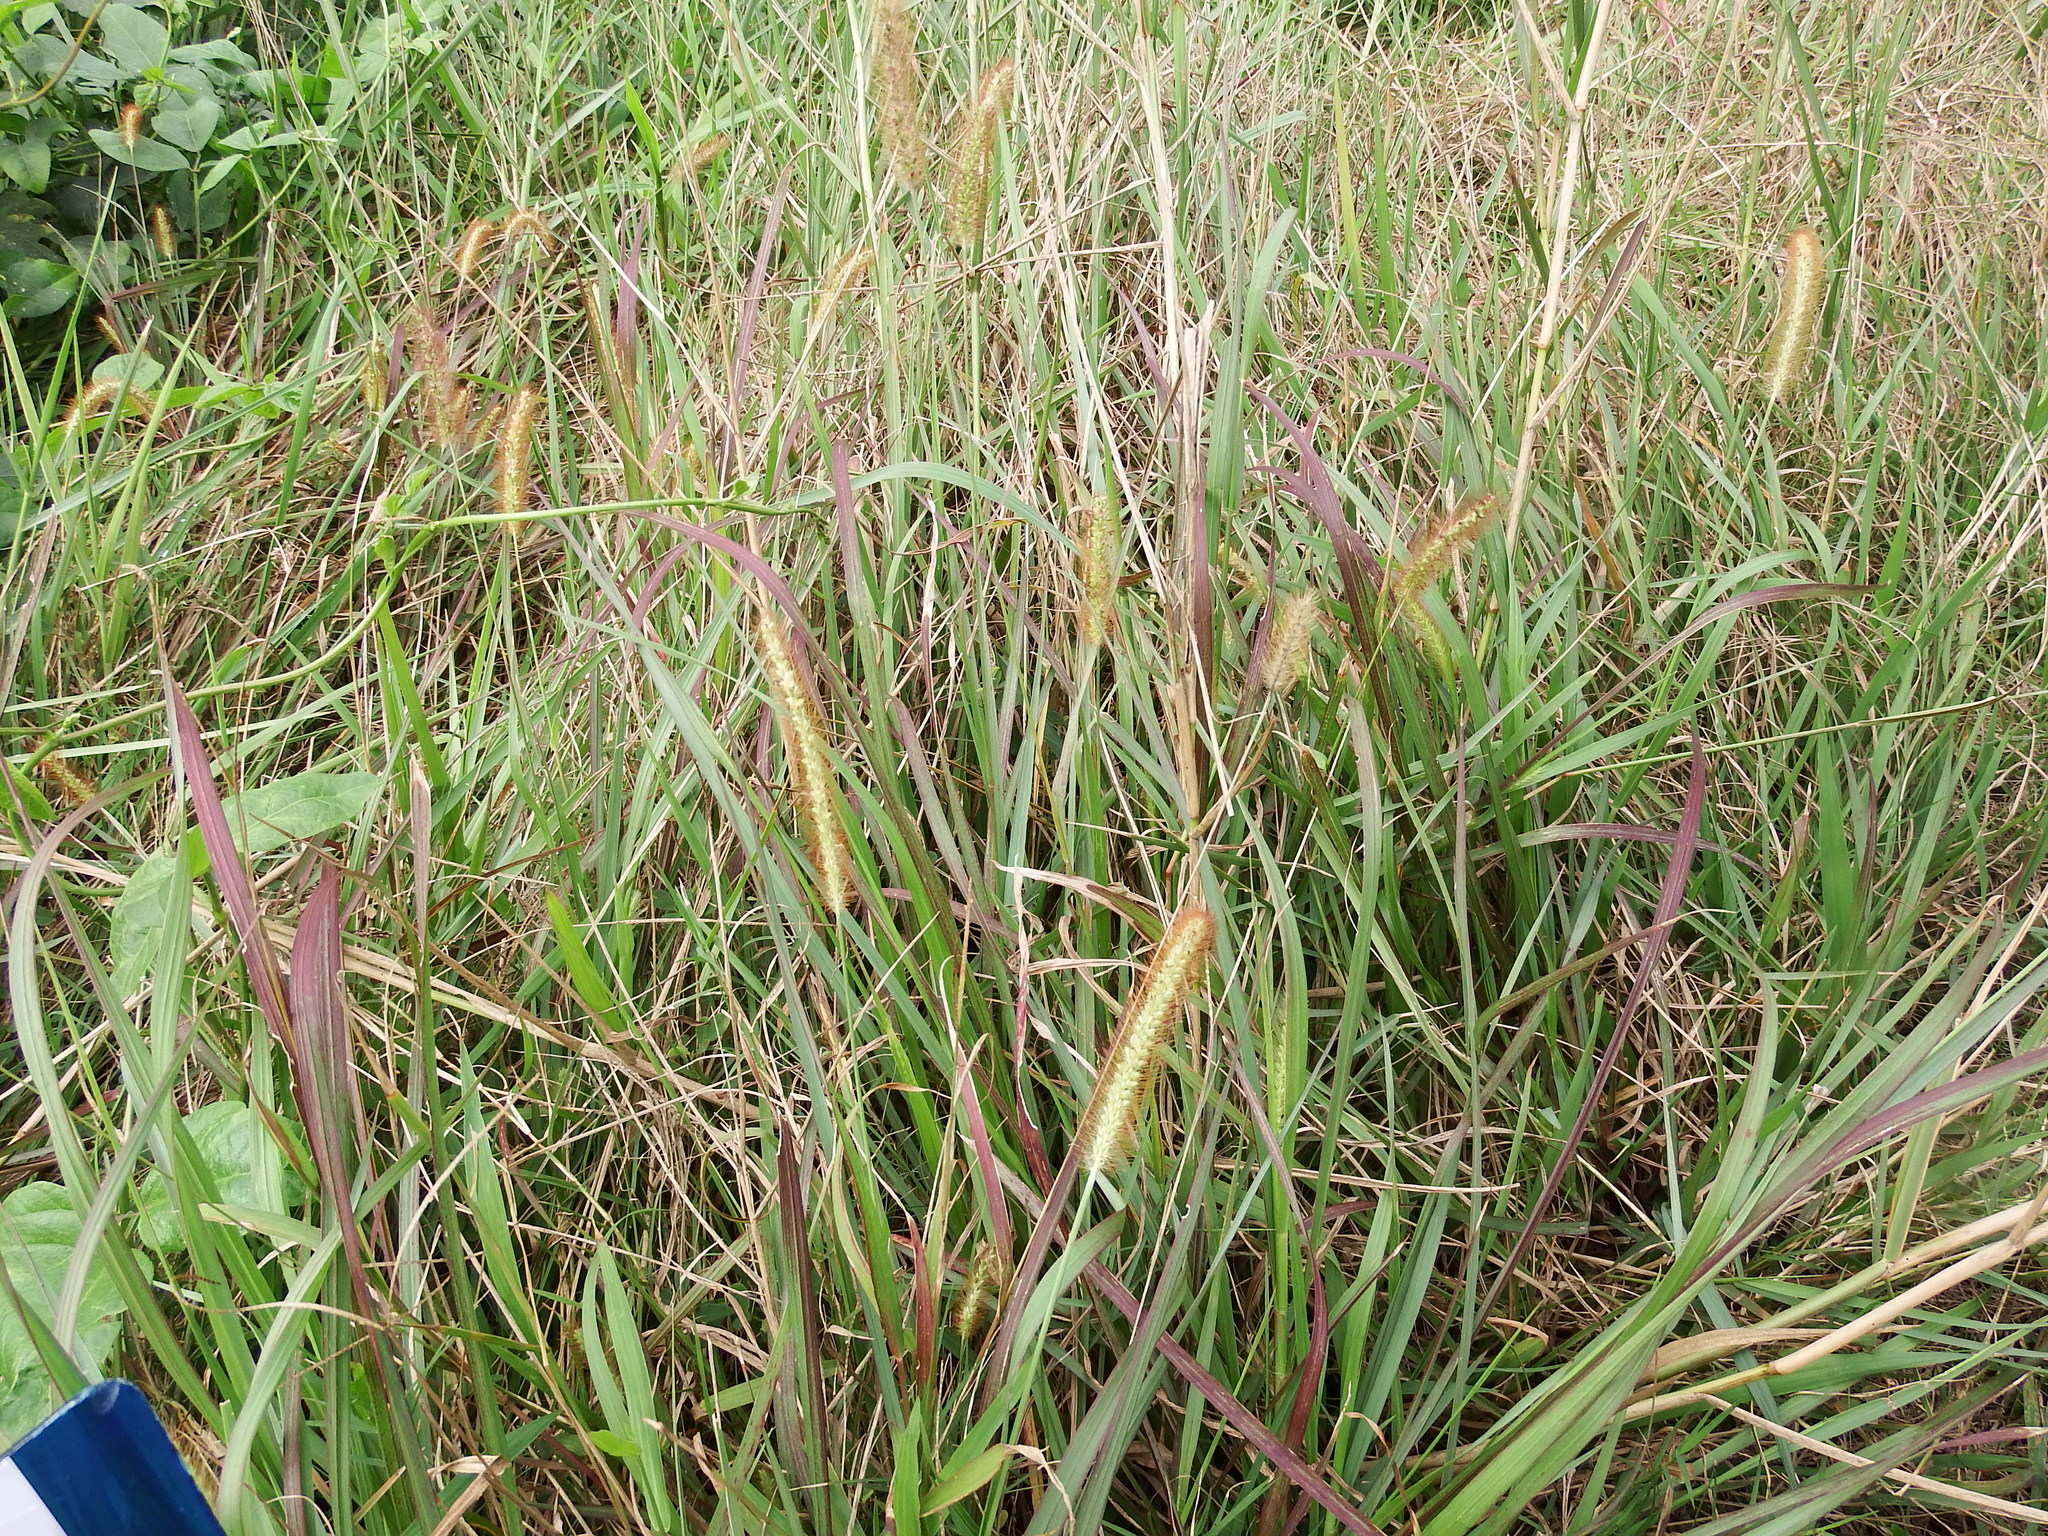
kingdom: Plantae
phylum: Tracheophyta
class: Liliopsida
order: Poales
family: Poaceae
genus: Setaria
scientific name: Setaria parviflora
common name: Knotroot bristle-grass
